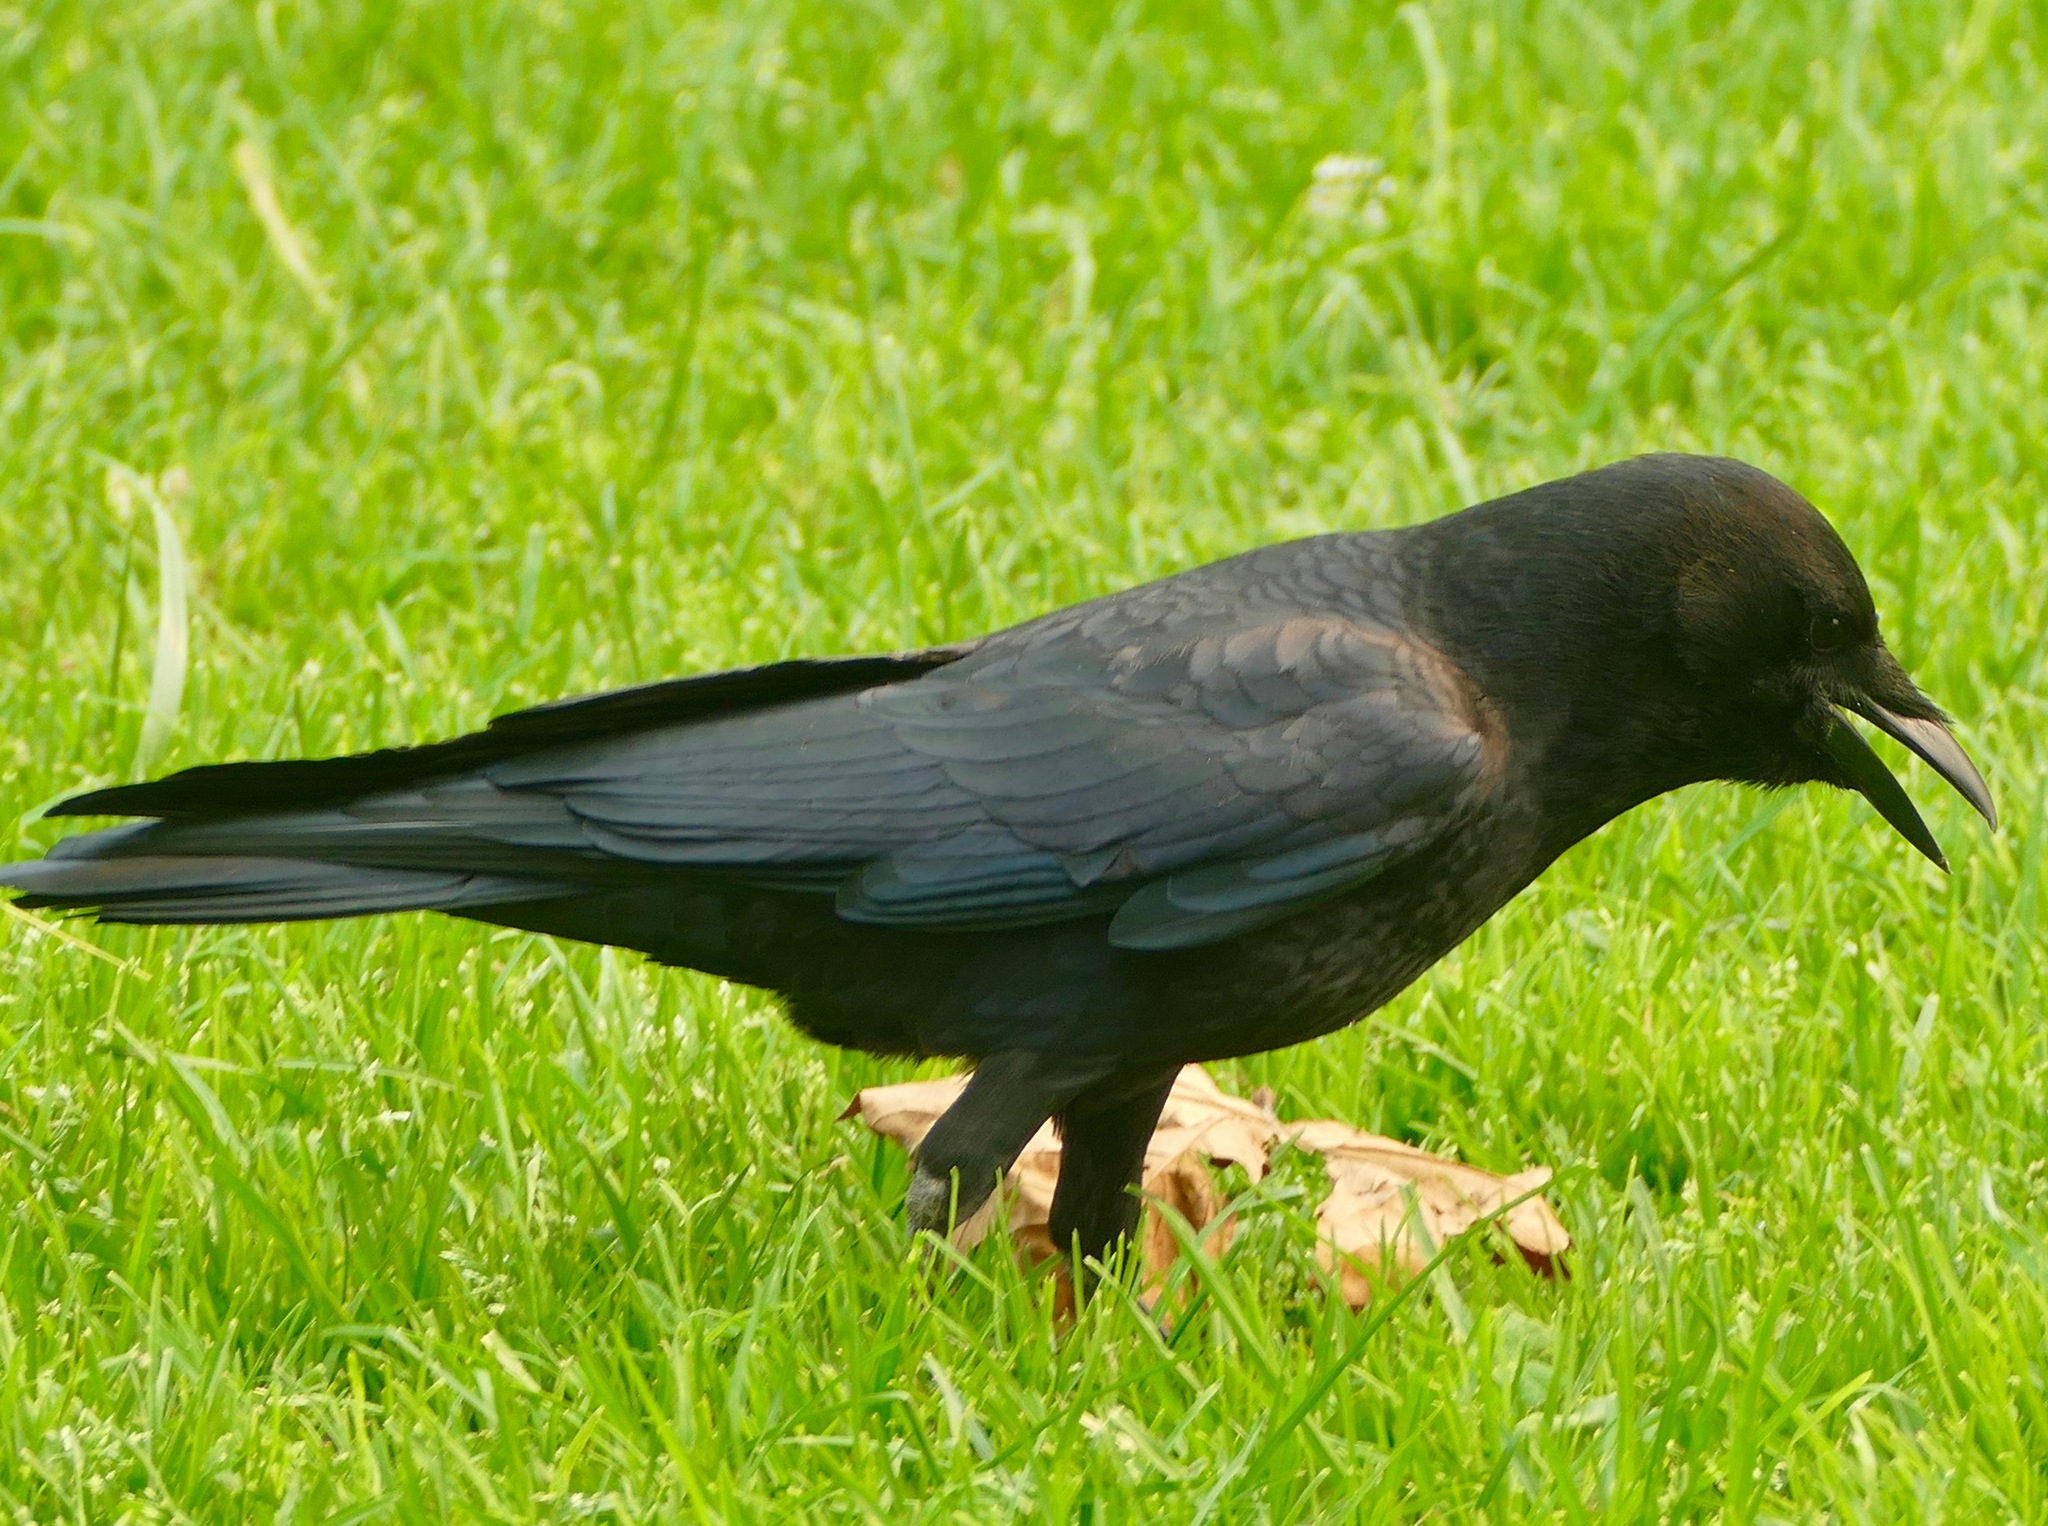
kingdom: Animalia
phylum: Chordata
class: Aves
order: Passeriformes
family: Corvidae
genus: Corvus
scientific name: Corvus brachyrhynchos
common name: American crow
